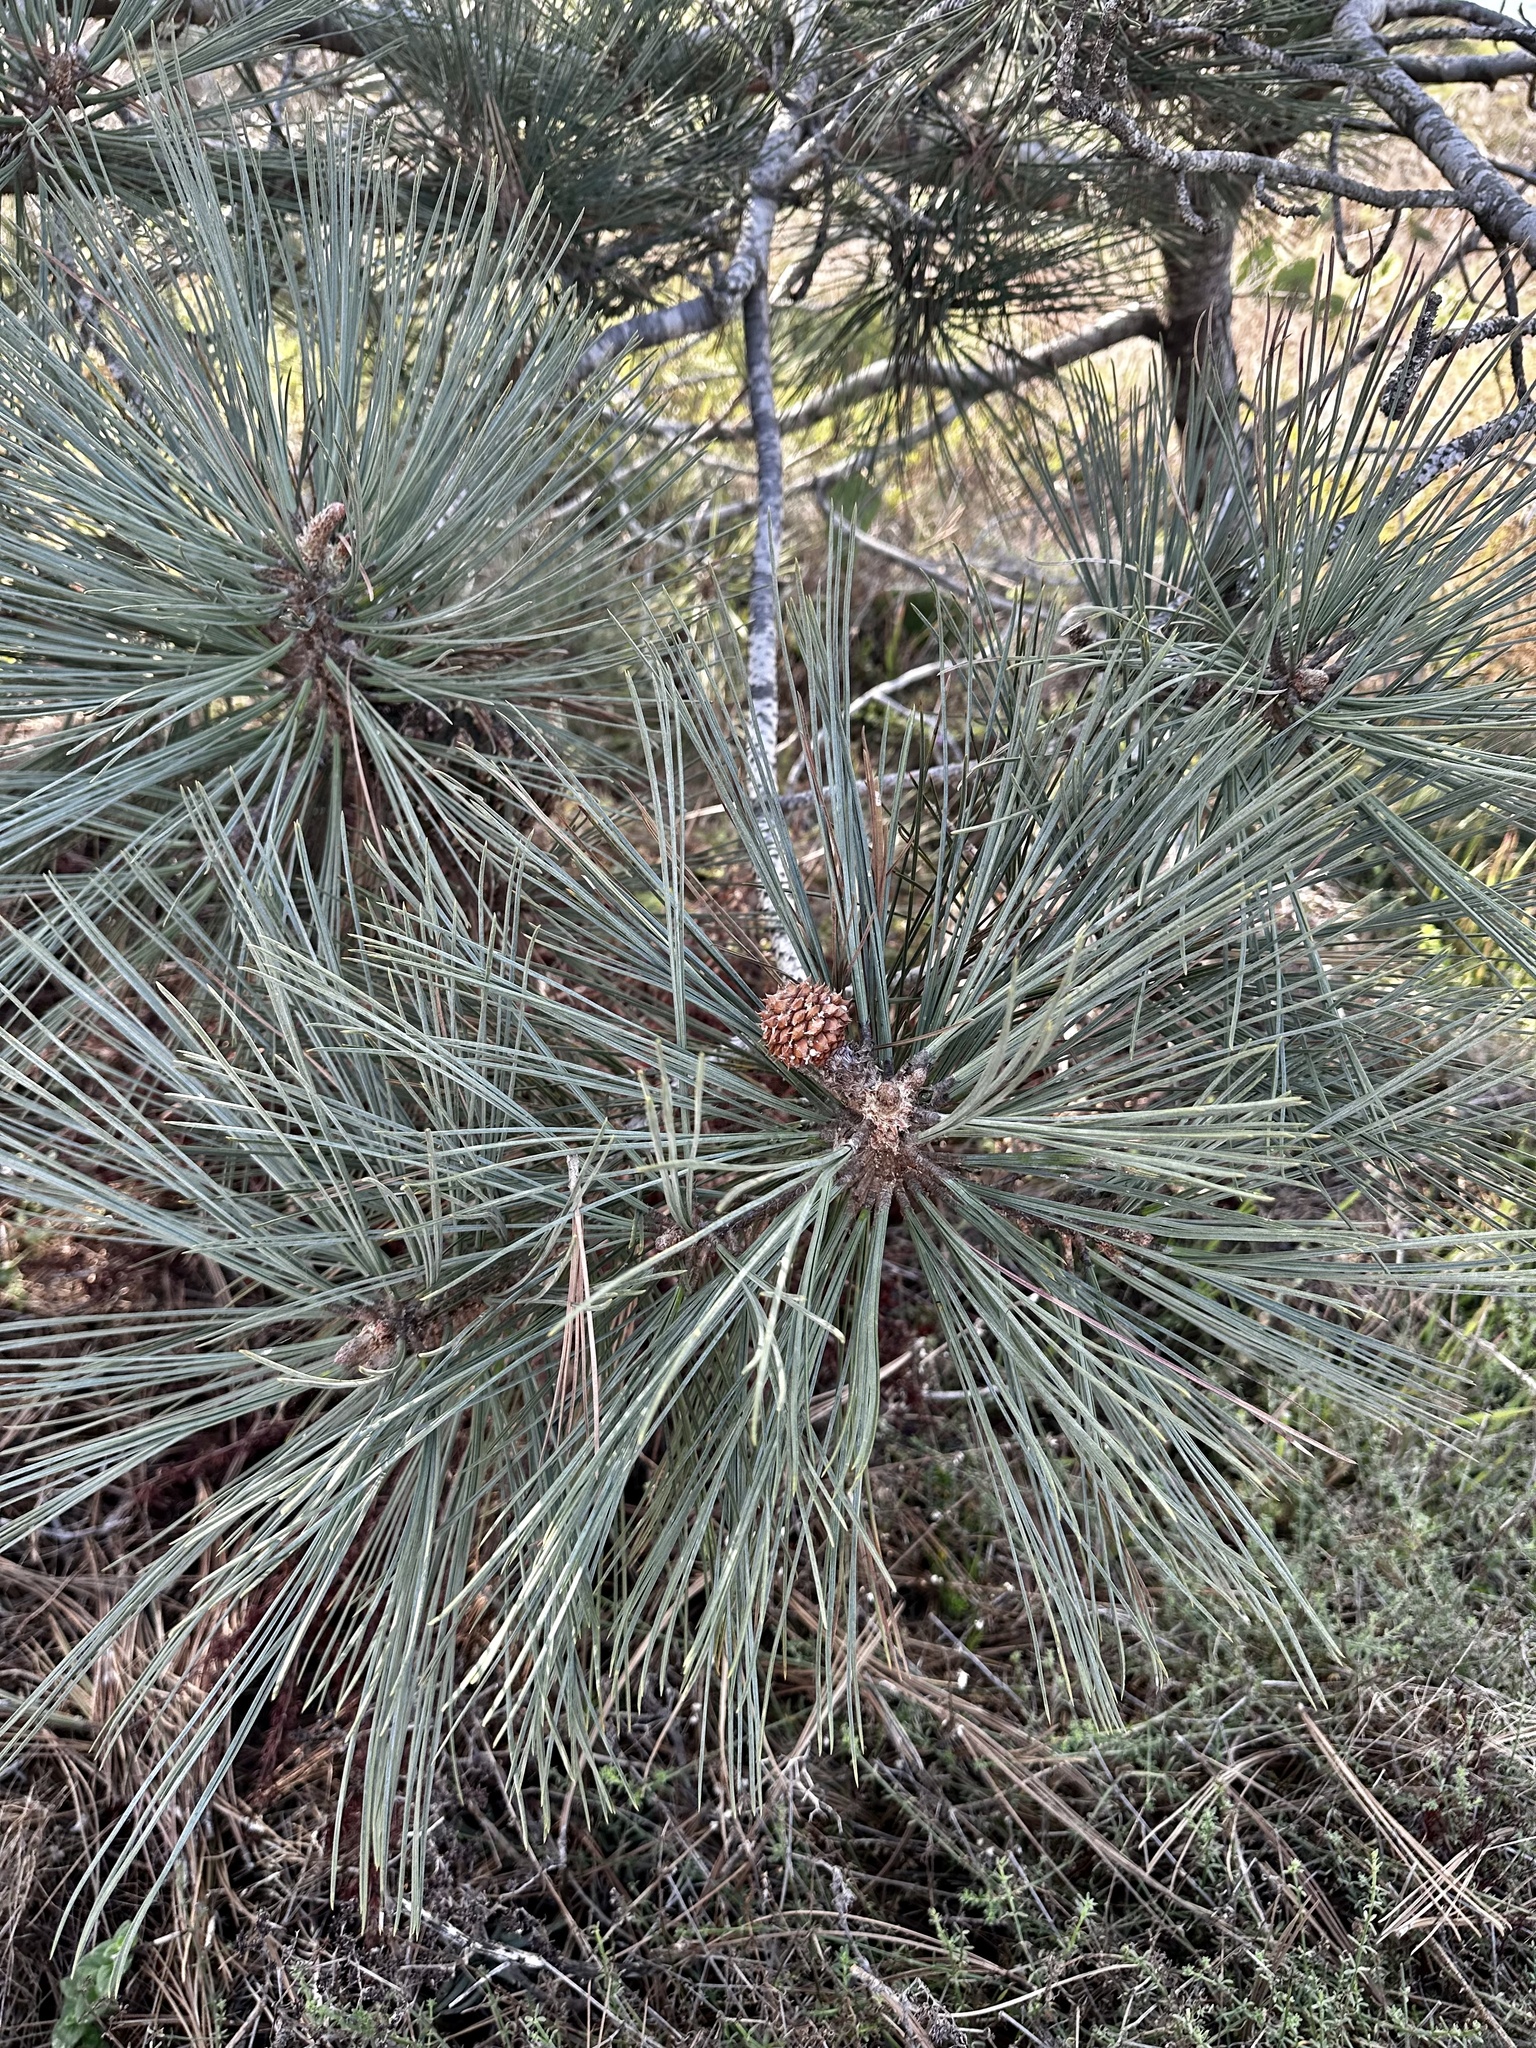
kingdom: Plantae
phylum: Tracheophyta
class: Pinopsida
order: Pinales
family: Pinaceae
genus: Pinus
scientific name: Pinus torreyana
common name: Torrey pine
